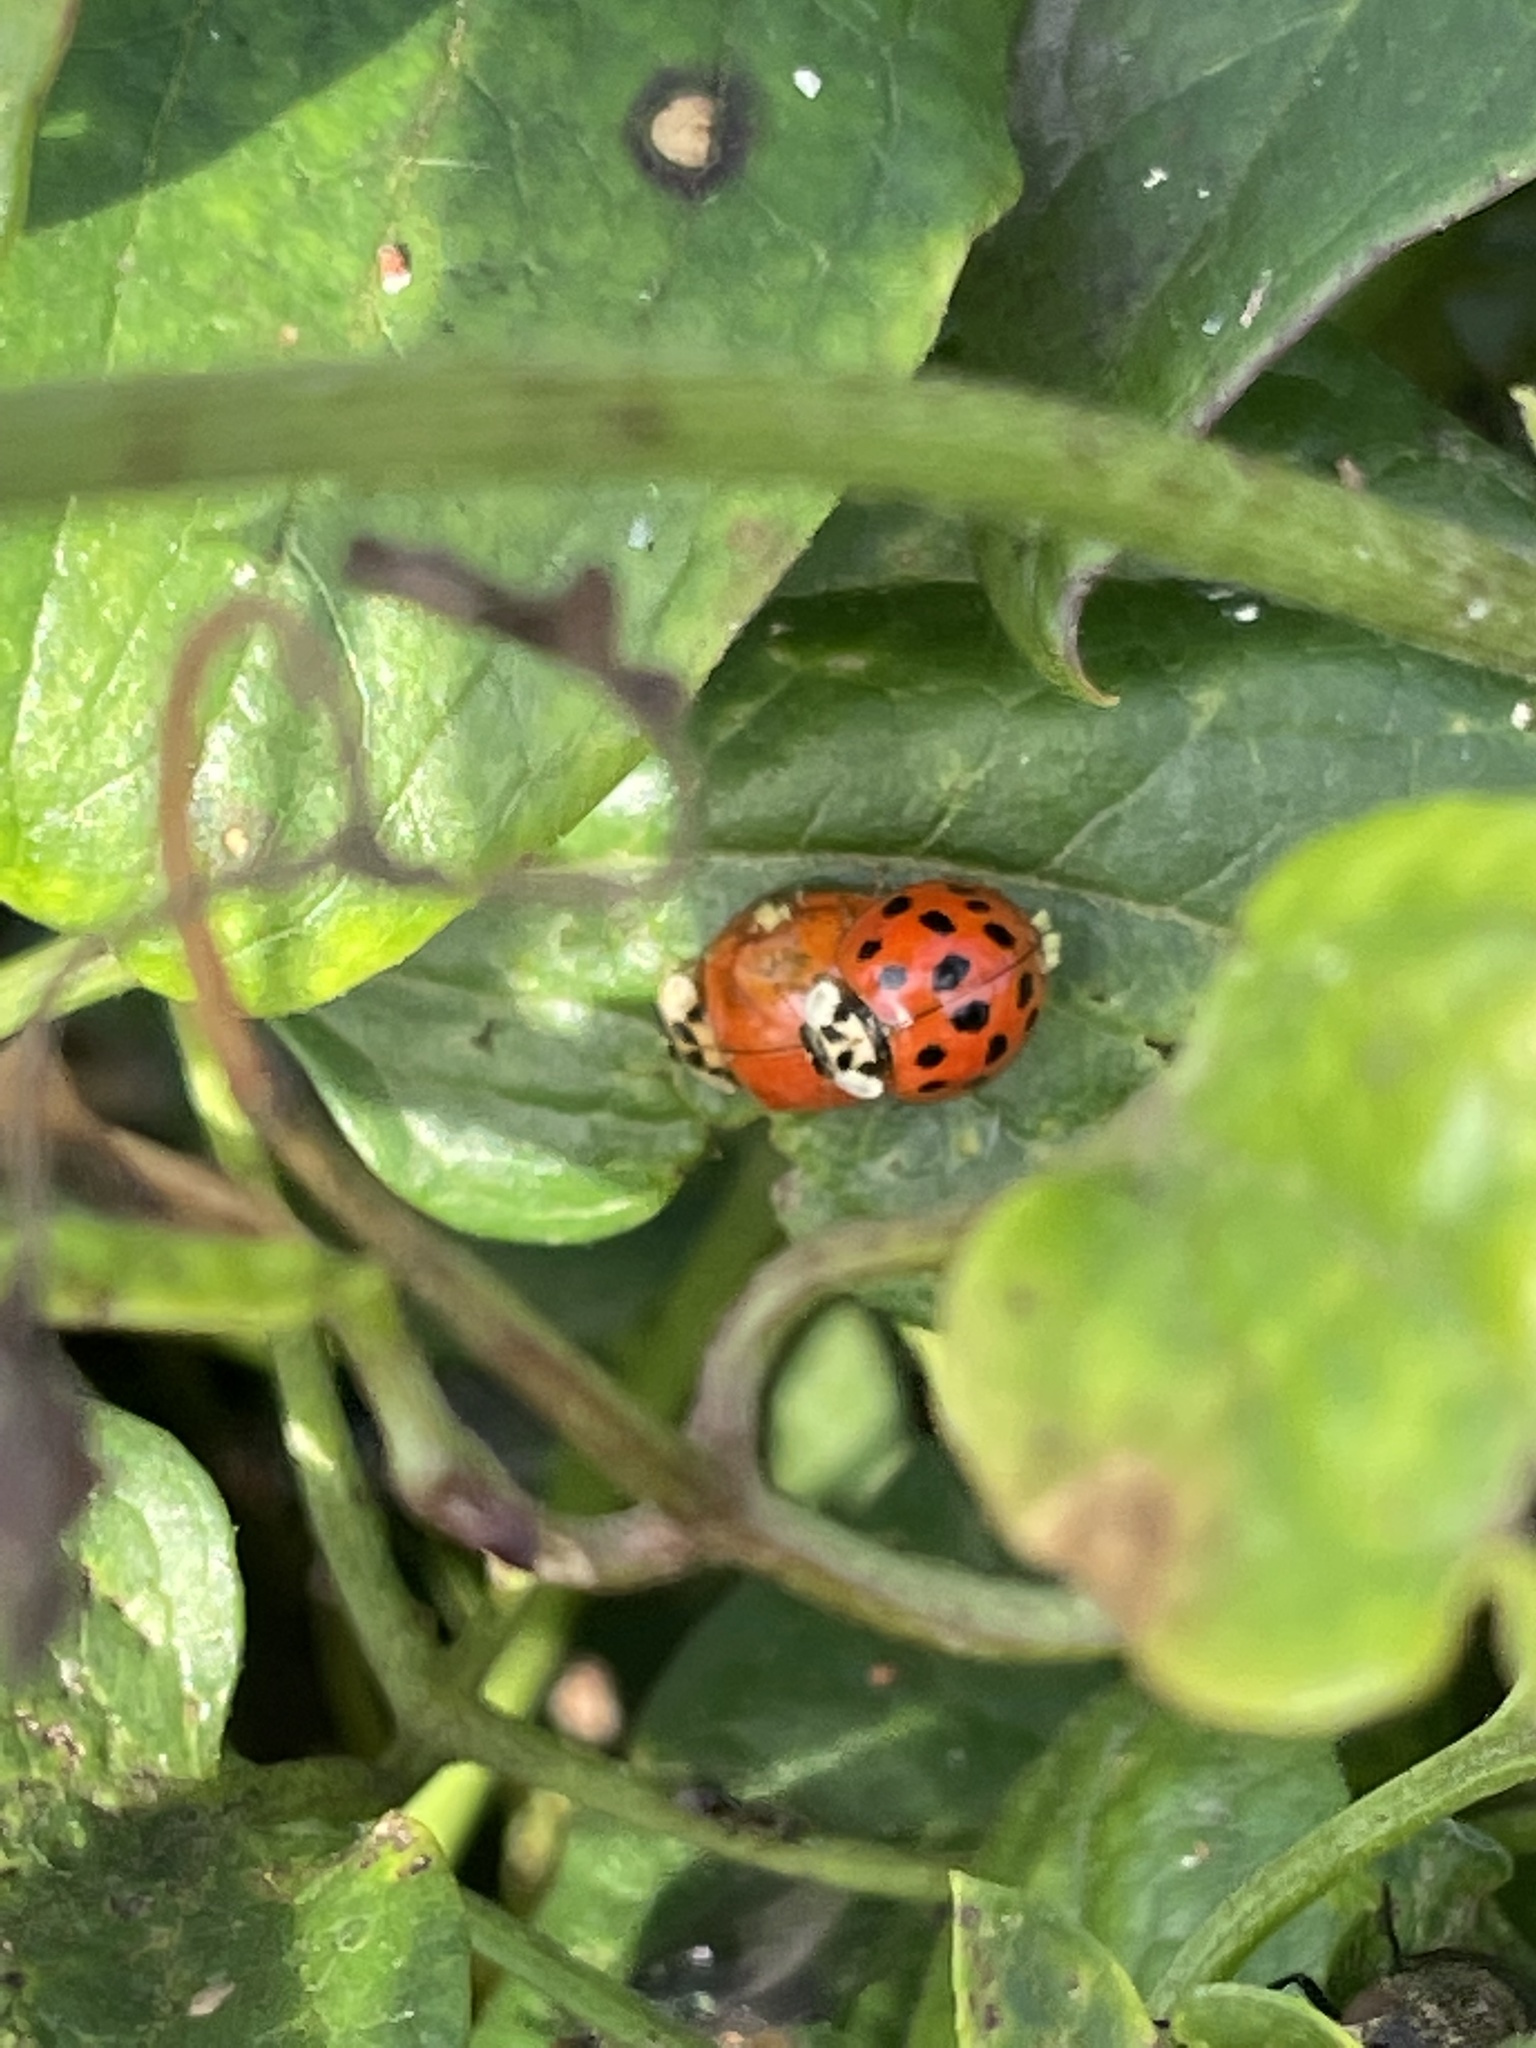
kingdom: Animalia
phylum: Arthropoda
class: Insecta
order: Coleoptera
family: Coccinellidae
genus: Harmonia
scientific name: Harmonia axyridis
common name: Harlequin ladybird
